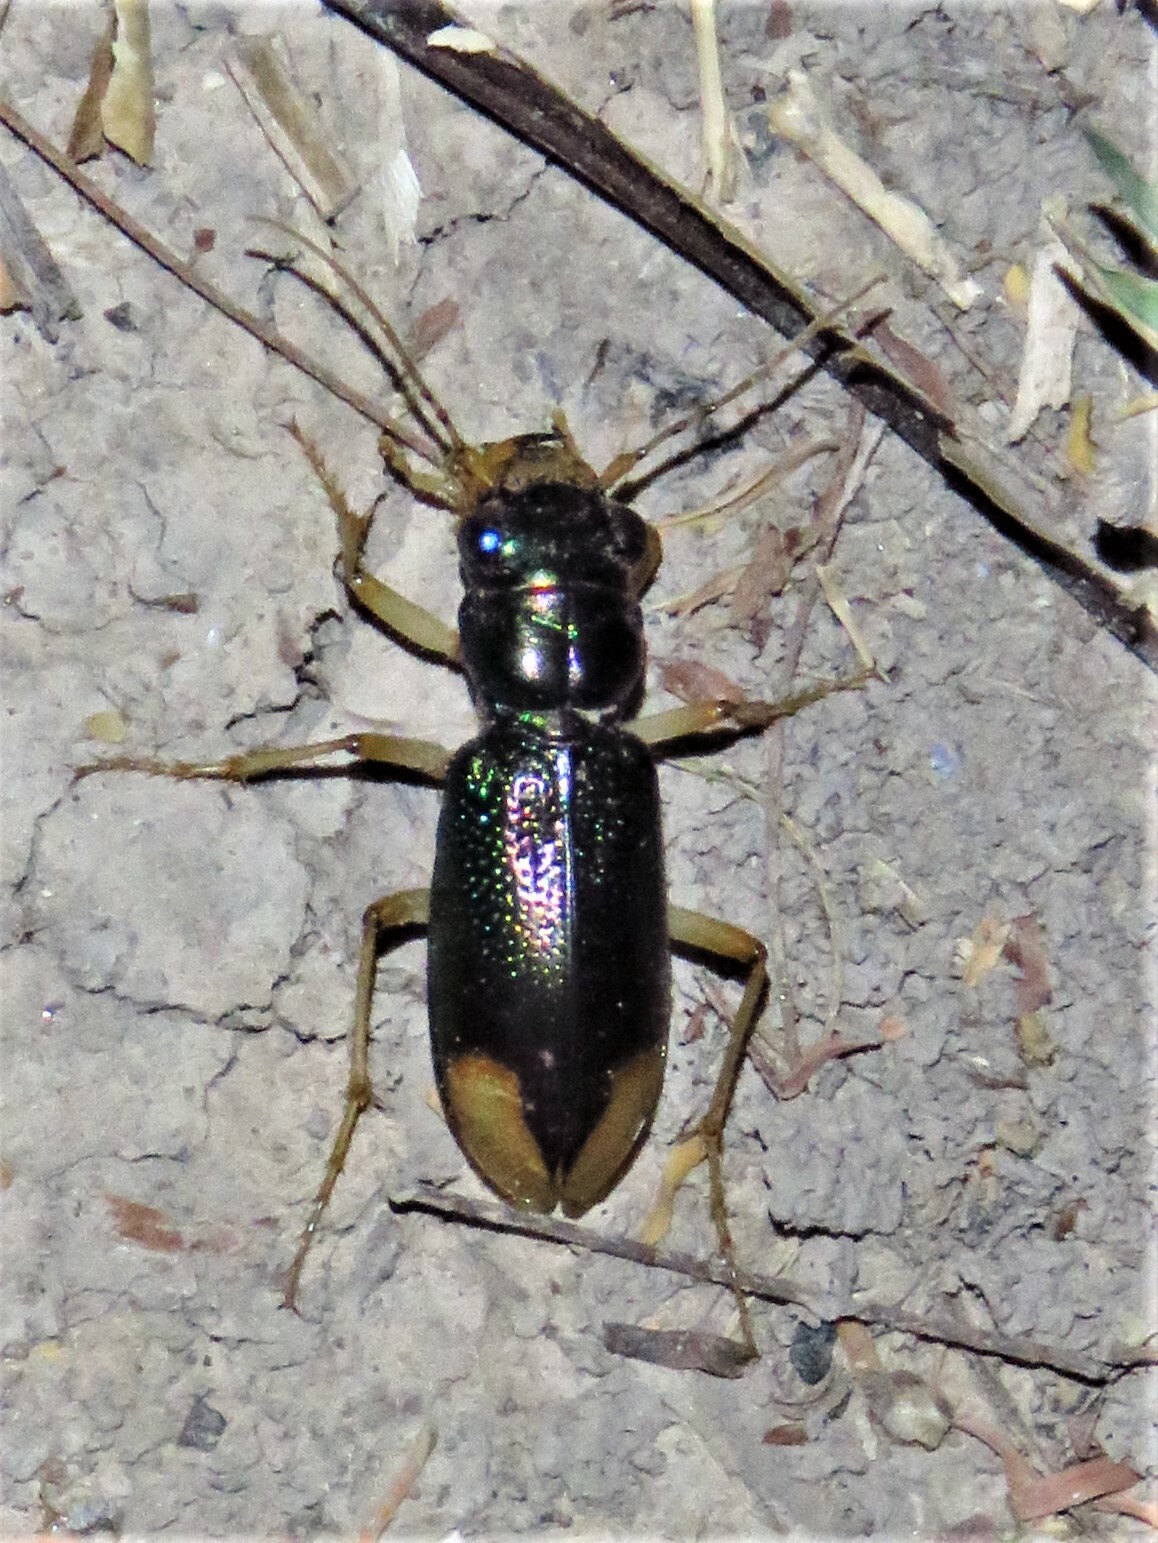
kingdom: Animalia
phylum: Arthropoda
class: Insecta
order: Coleoptera
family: Carabidae
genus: Tetracha
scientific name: Tetracha impressa
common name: Upland metallic tiger beetle
